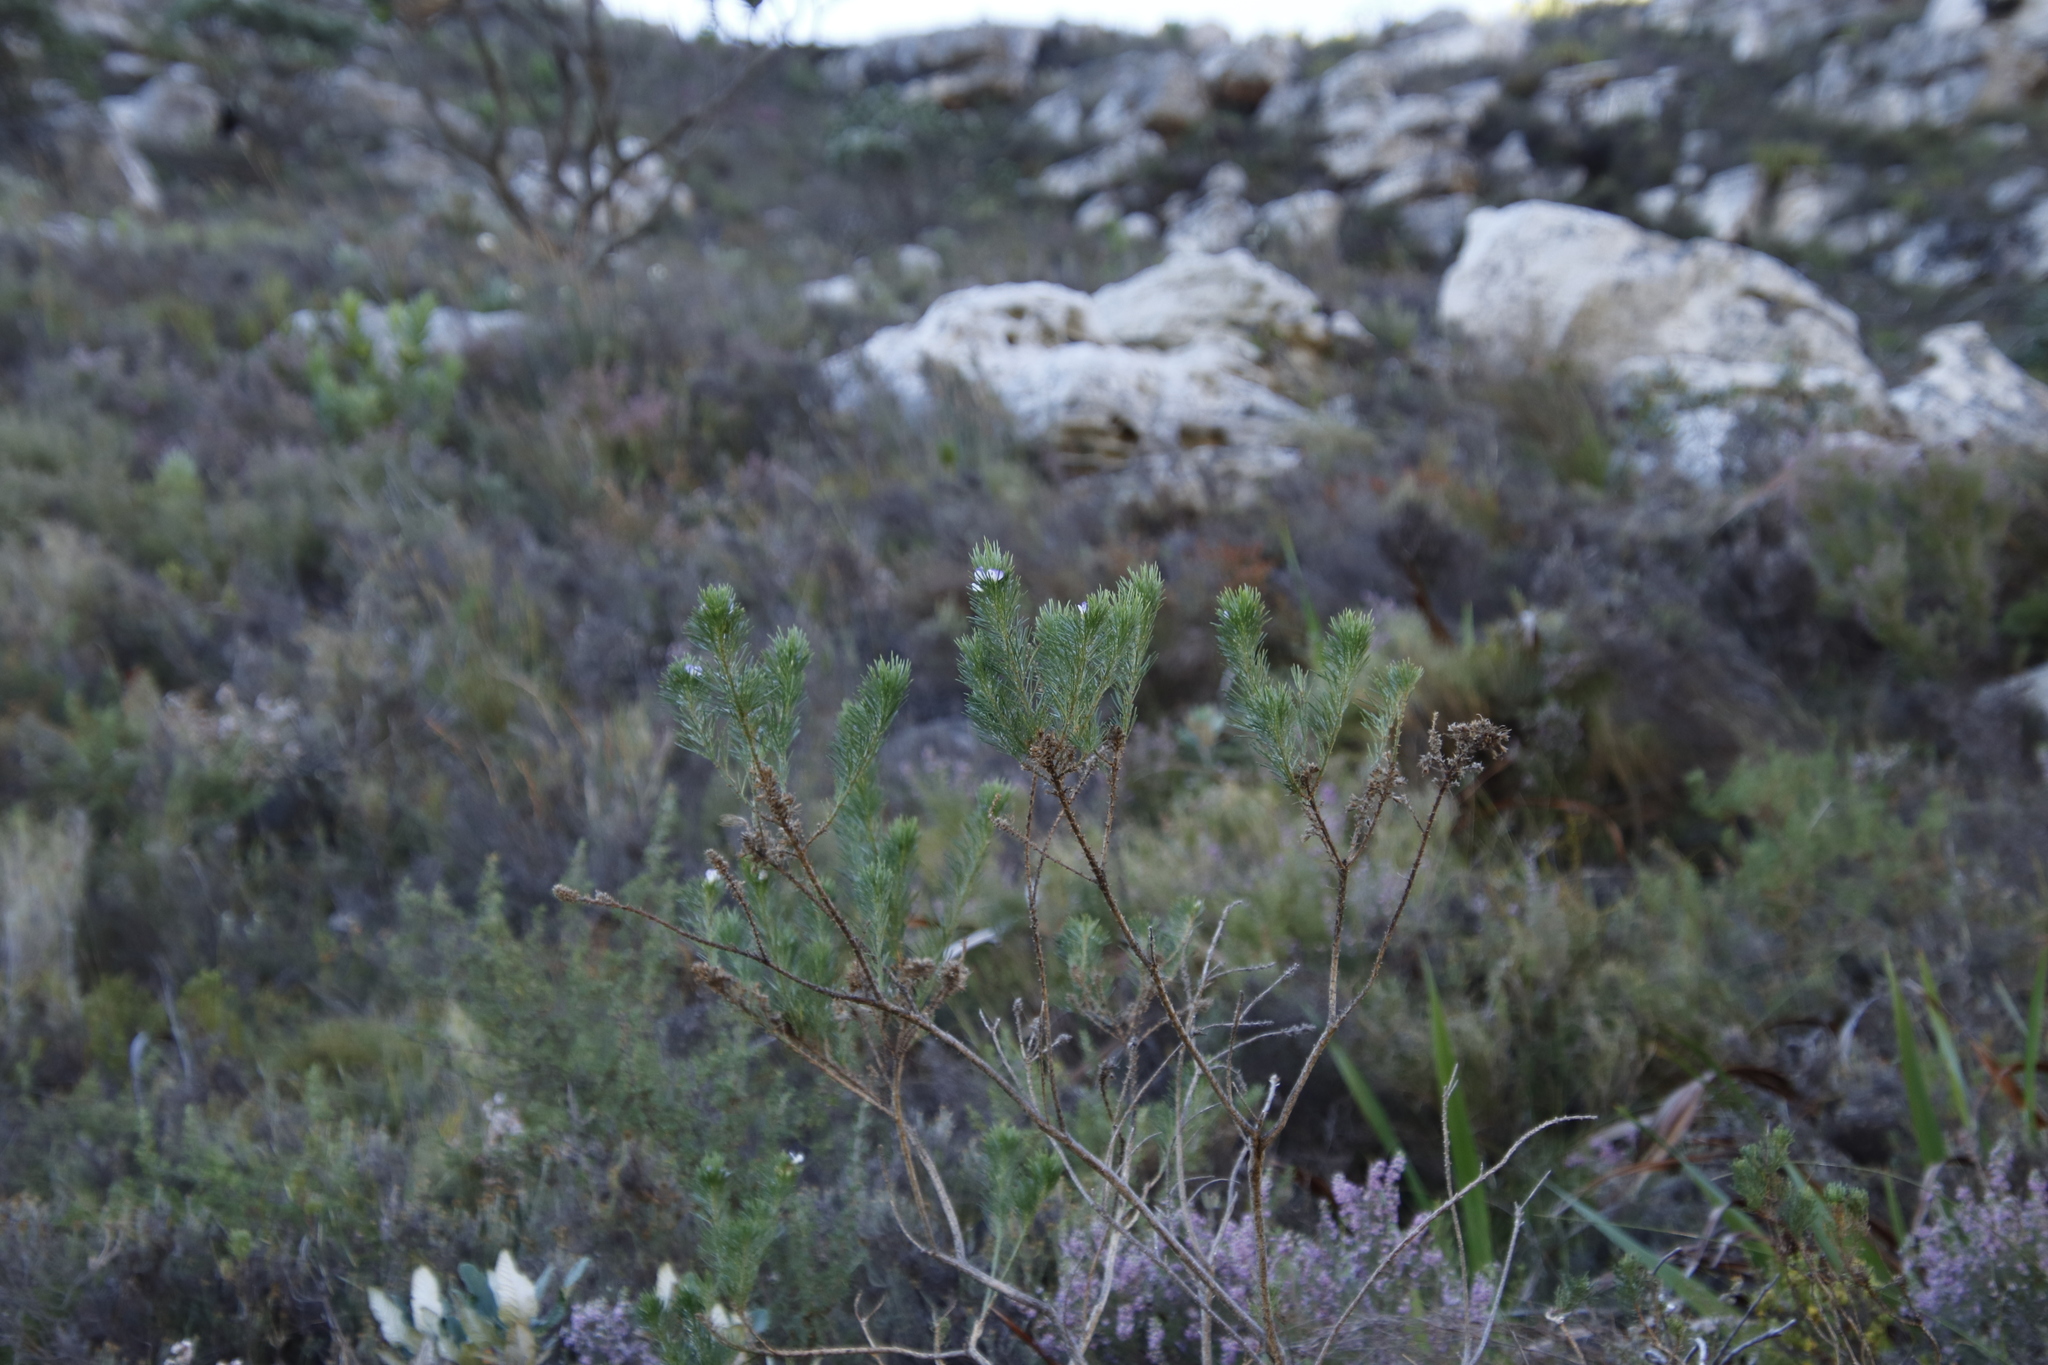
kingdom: Plantae
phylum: Tracheophyta
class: Magnoliopsida
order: Fabales
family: Fabaceae
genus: Psoralea
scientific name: Psoralea pinnata
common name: African scurfpea
